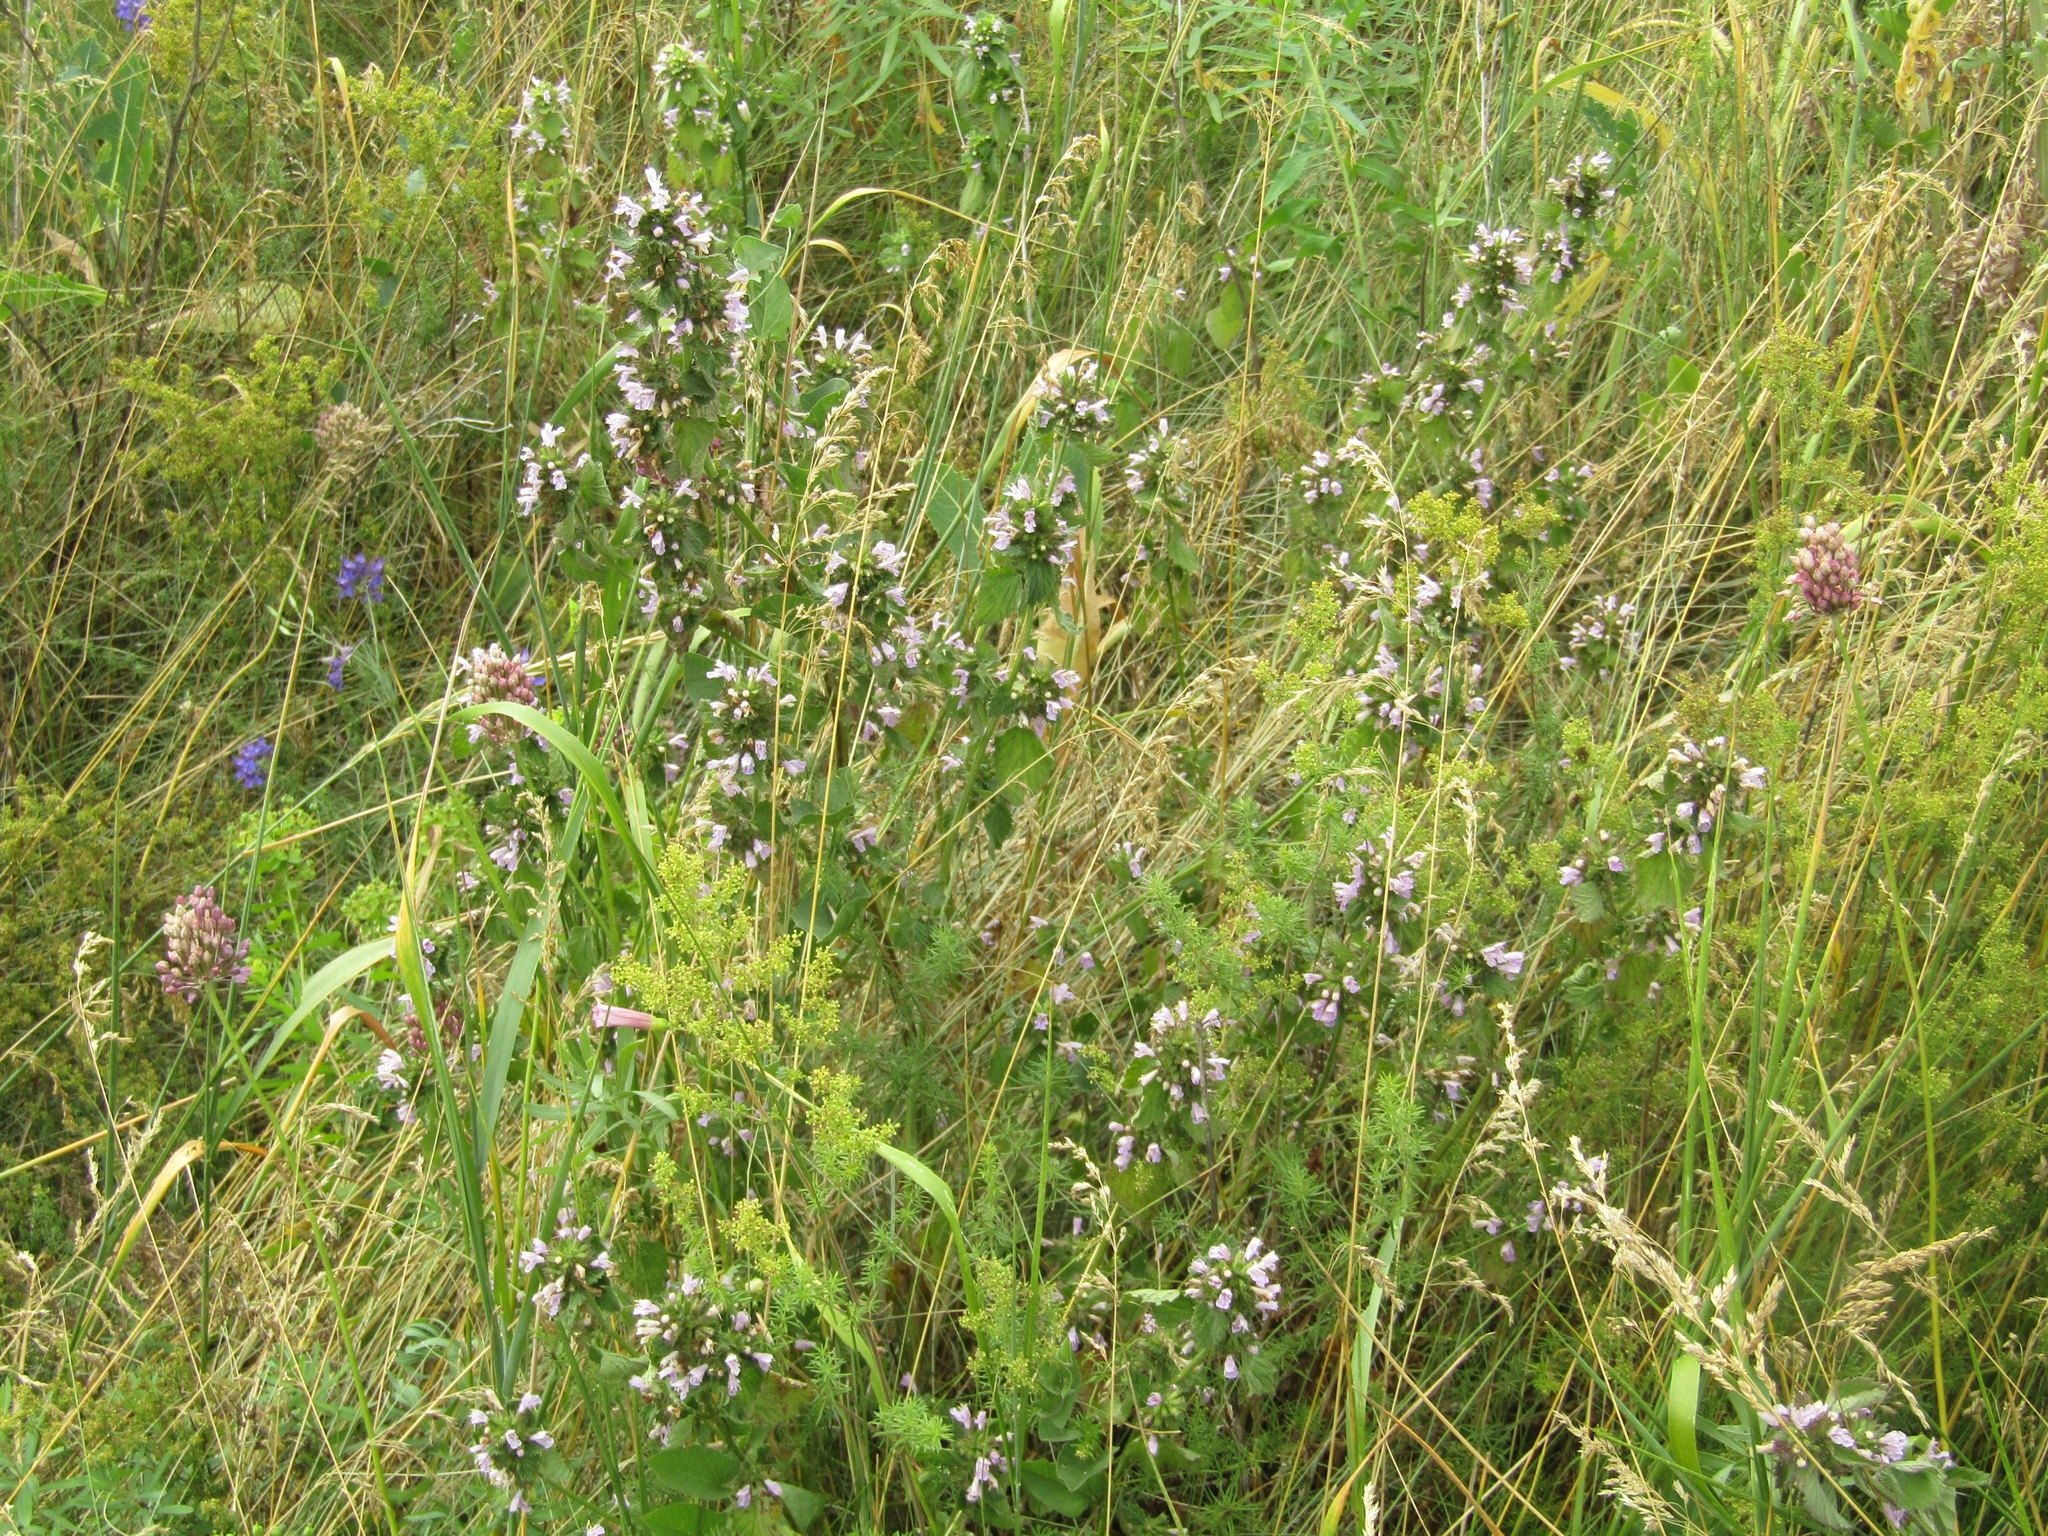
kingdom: Plantae
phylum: Tracheophyta
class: Magnoliopsida
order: Lamiales
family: Lamiaceae
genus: Ballota
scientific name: Ballota nigra
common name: Black horehound
